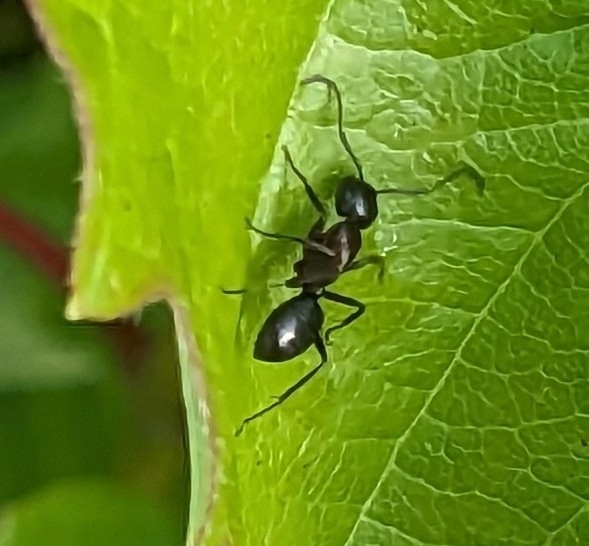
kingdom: Animalia
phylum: Arthropoda
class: Insecta
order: Hymenoptera
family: Formicidae
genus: Camponotus
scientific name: Camponotus novaeboracensis
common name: New york carpenter ant
